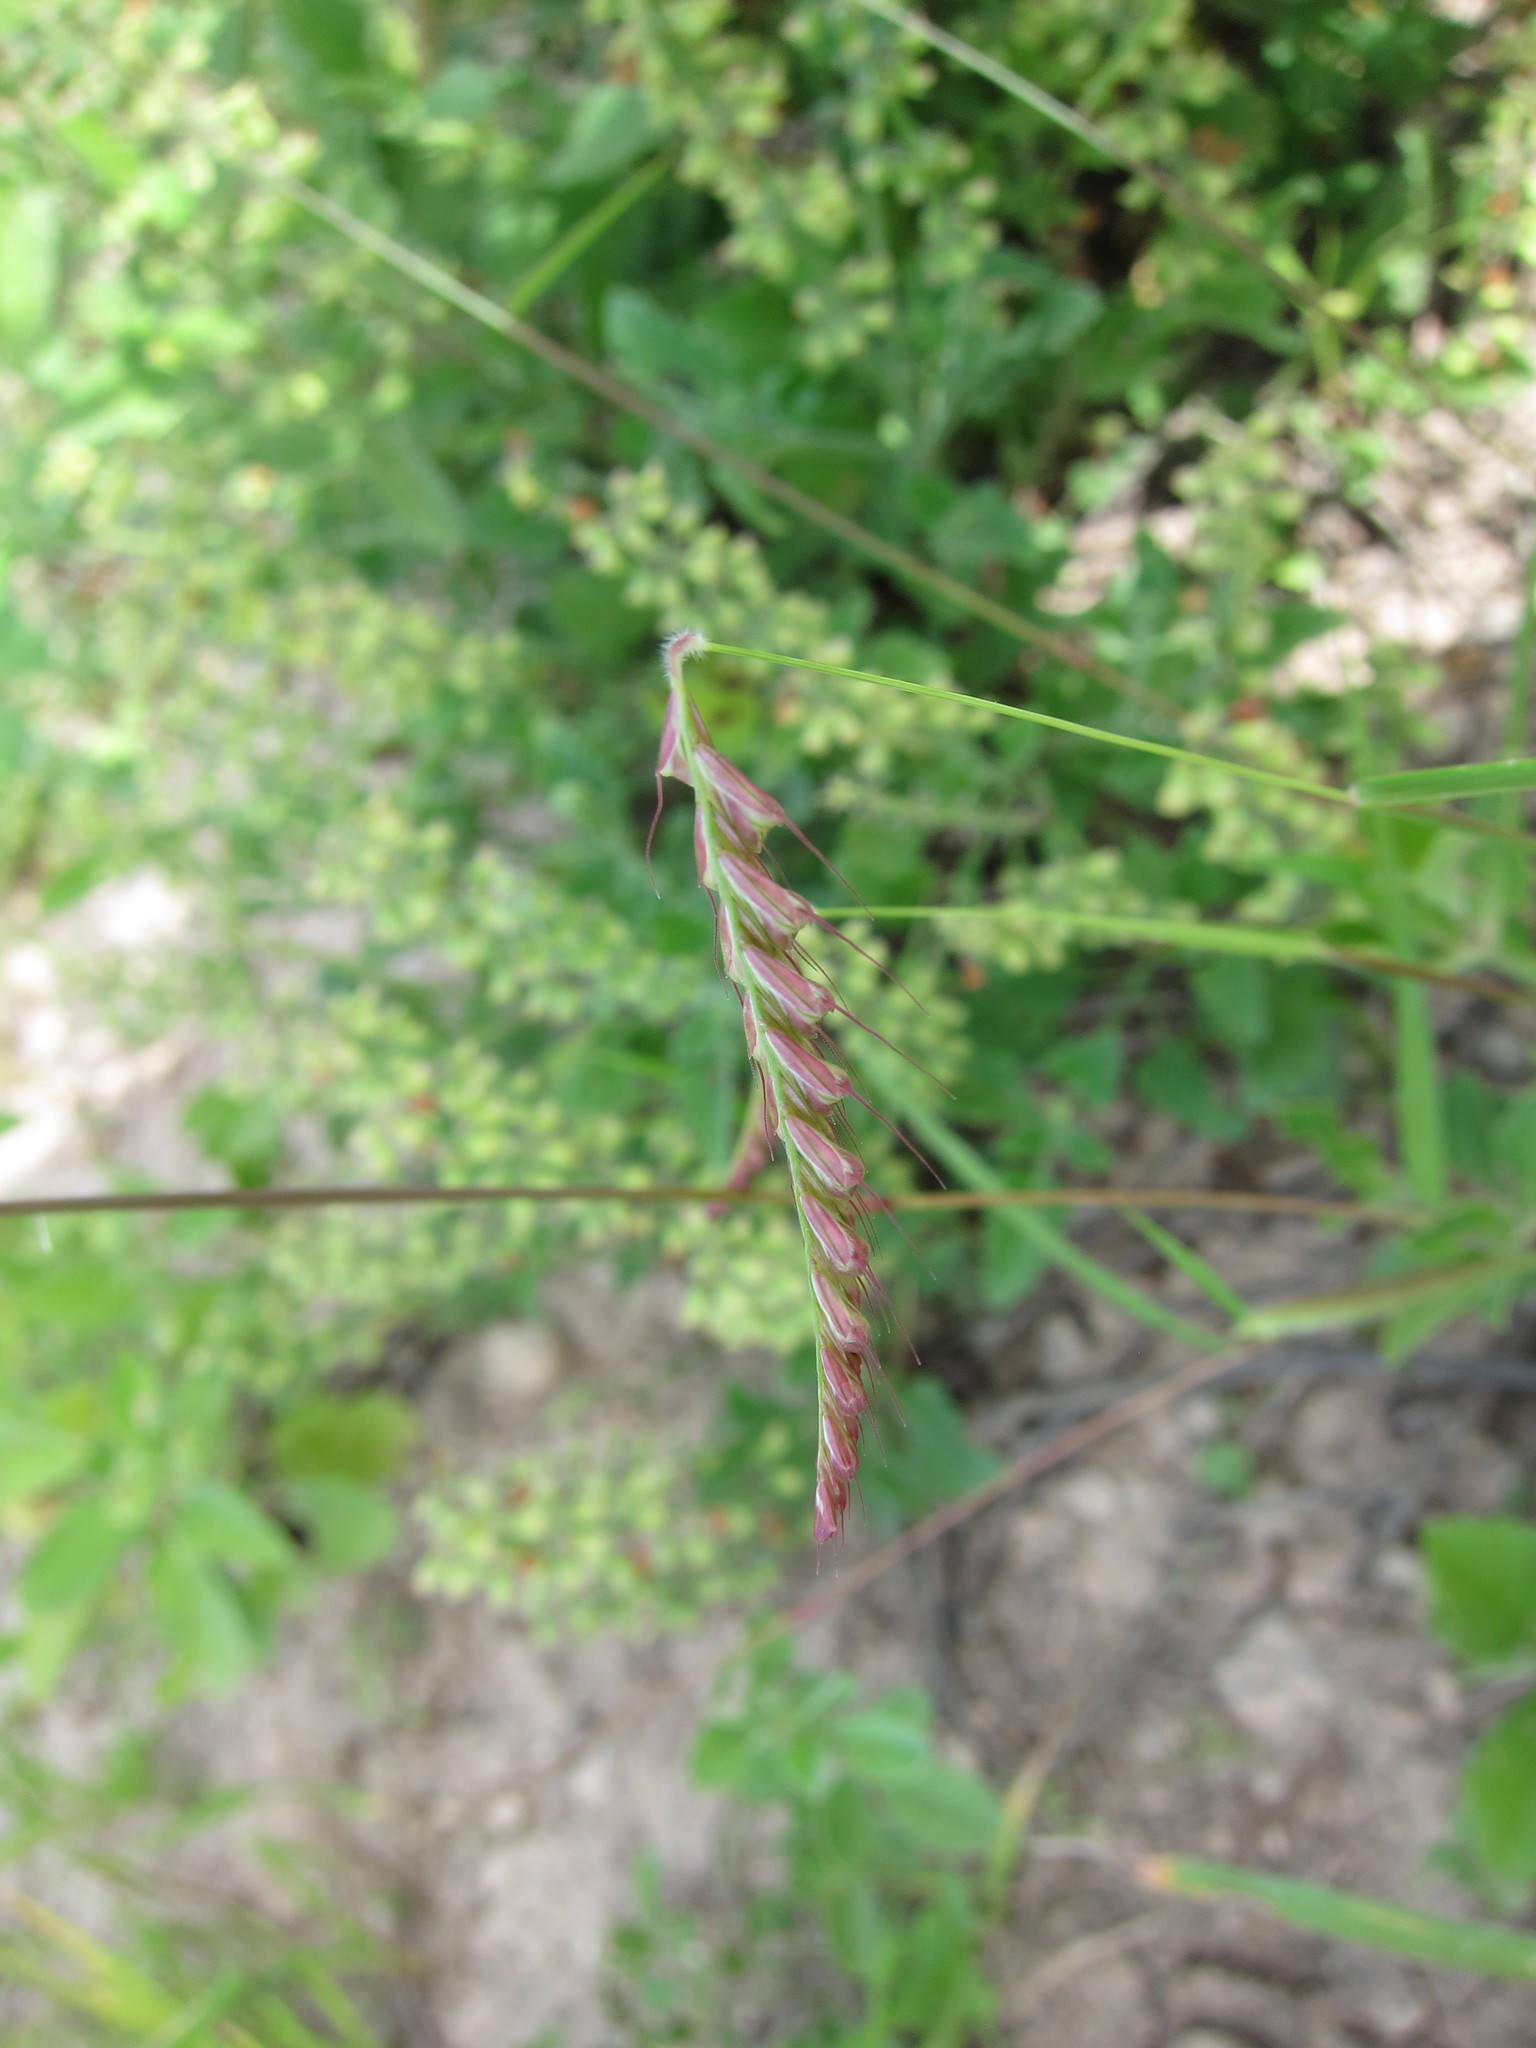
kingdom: Plantae
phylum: Tracheophyta
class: Liliopsida
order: Poales
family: Poaceae
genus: Tetrapogon
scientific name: Tetrapogon tenellus
